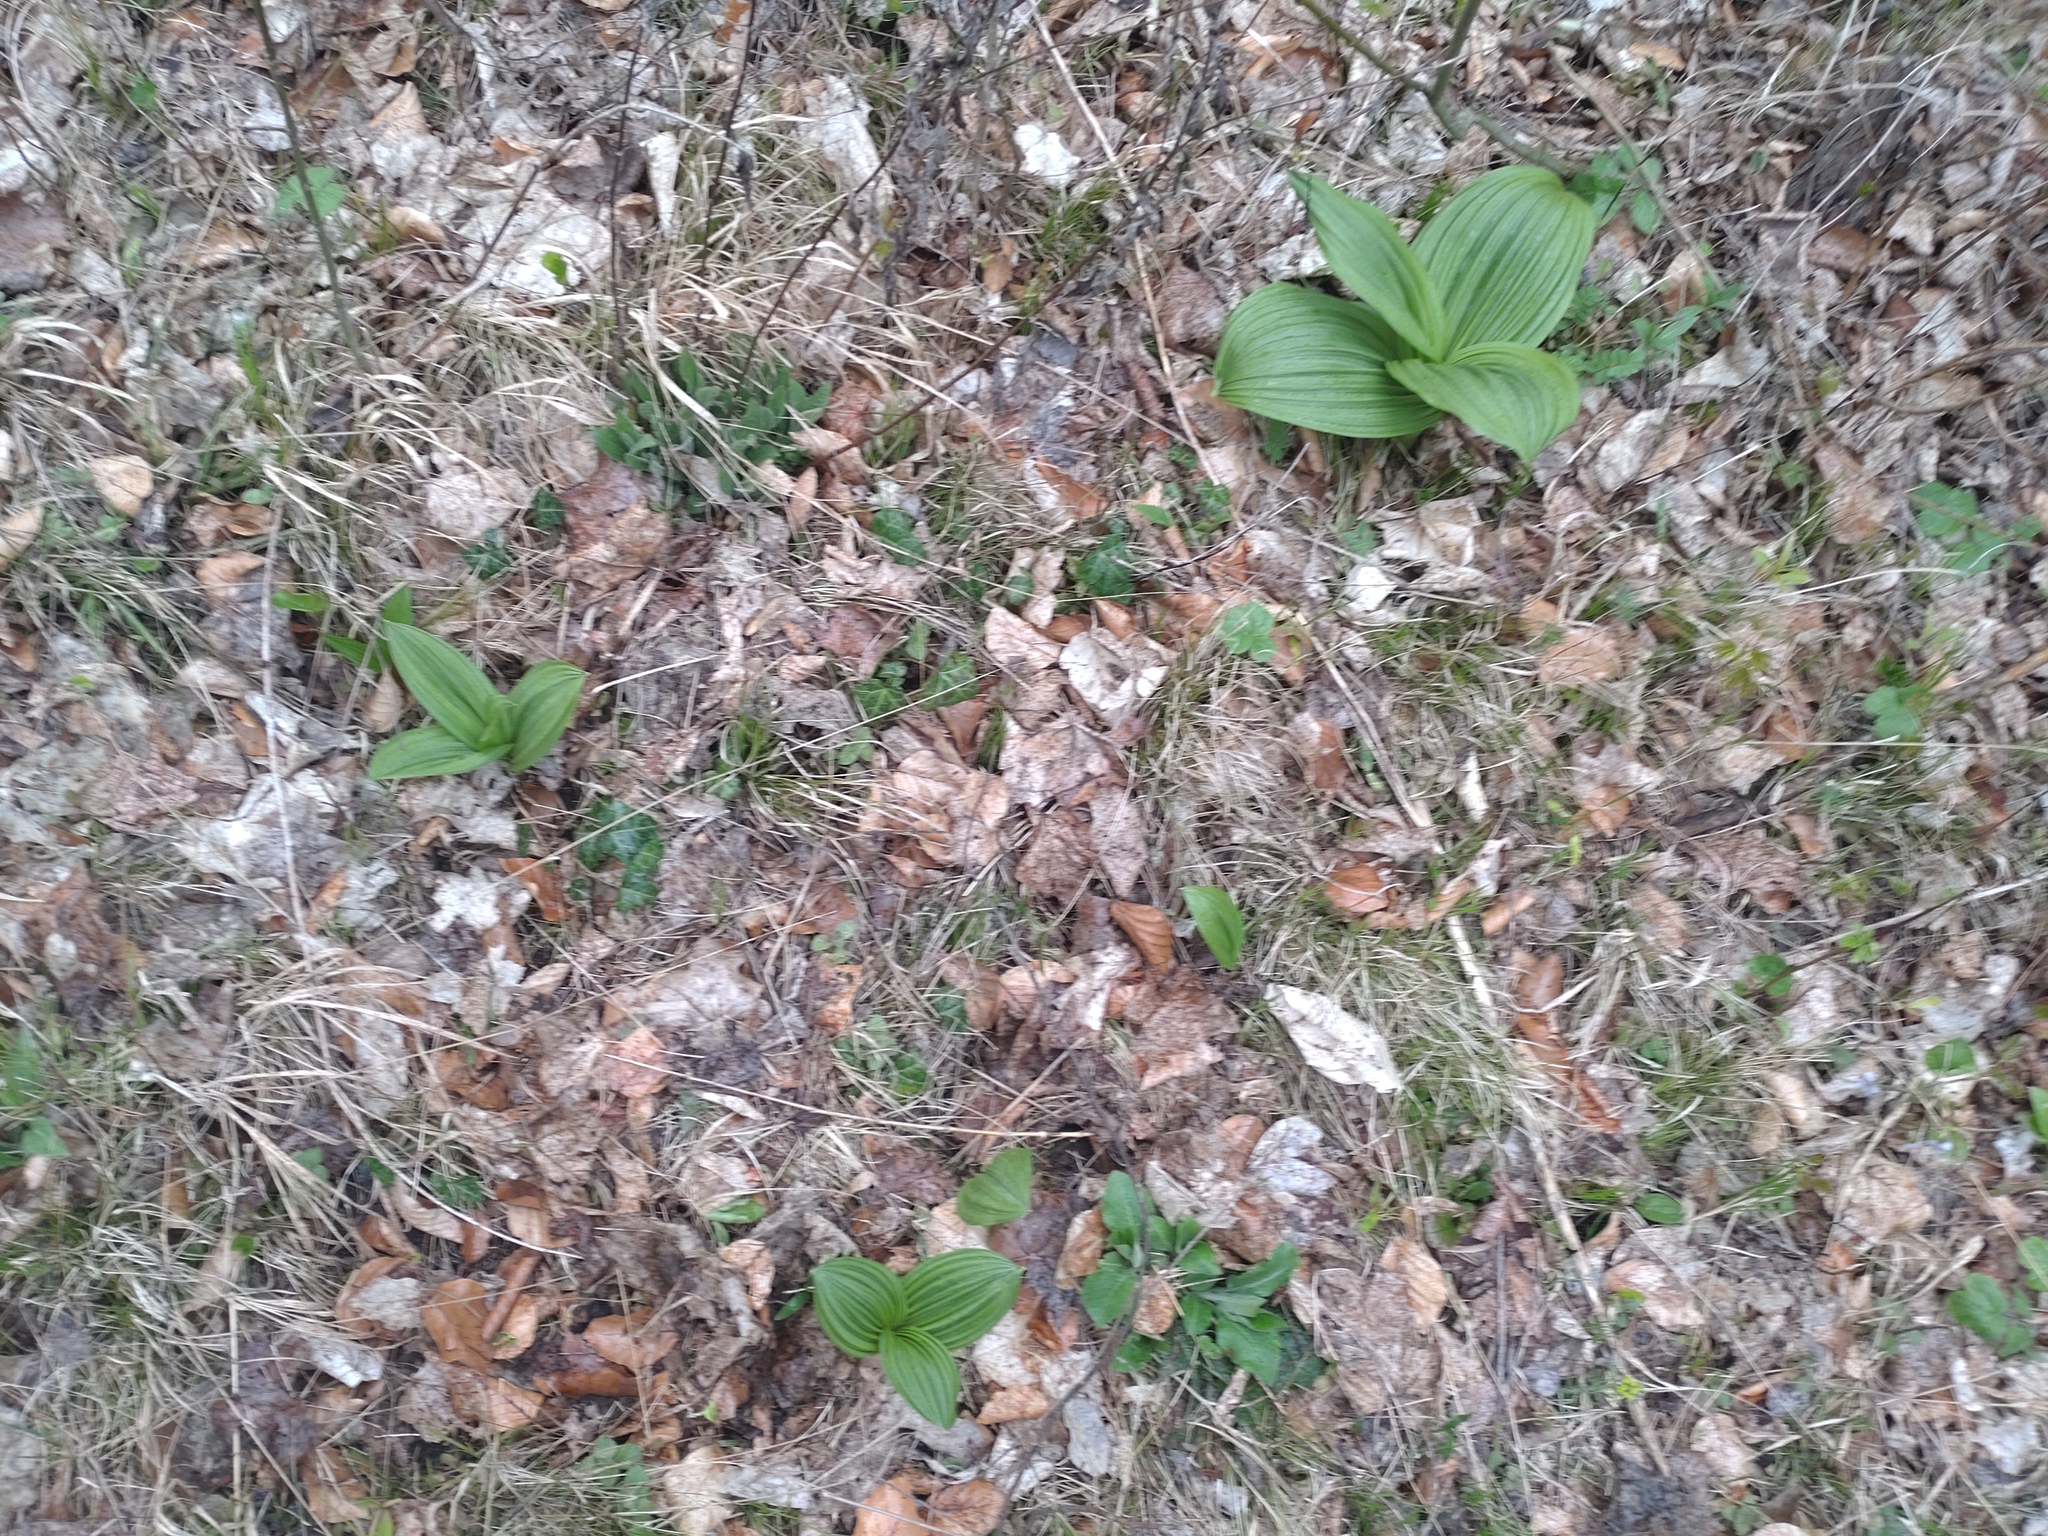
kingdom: Plantae
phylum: Tracheophyta
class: Liliopsida
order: Liliales
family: Melanthiaceae
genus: Veratrum
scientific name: Veratrum nigrum
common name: Black veratrum
